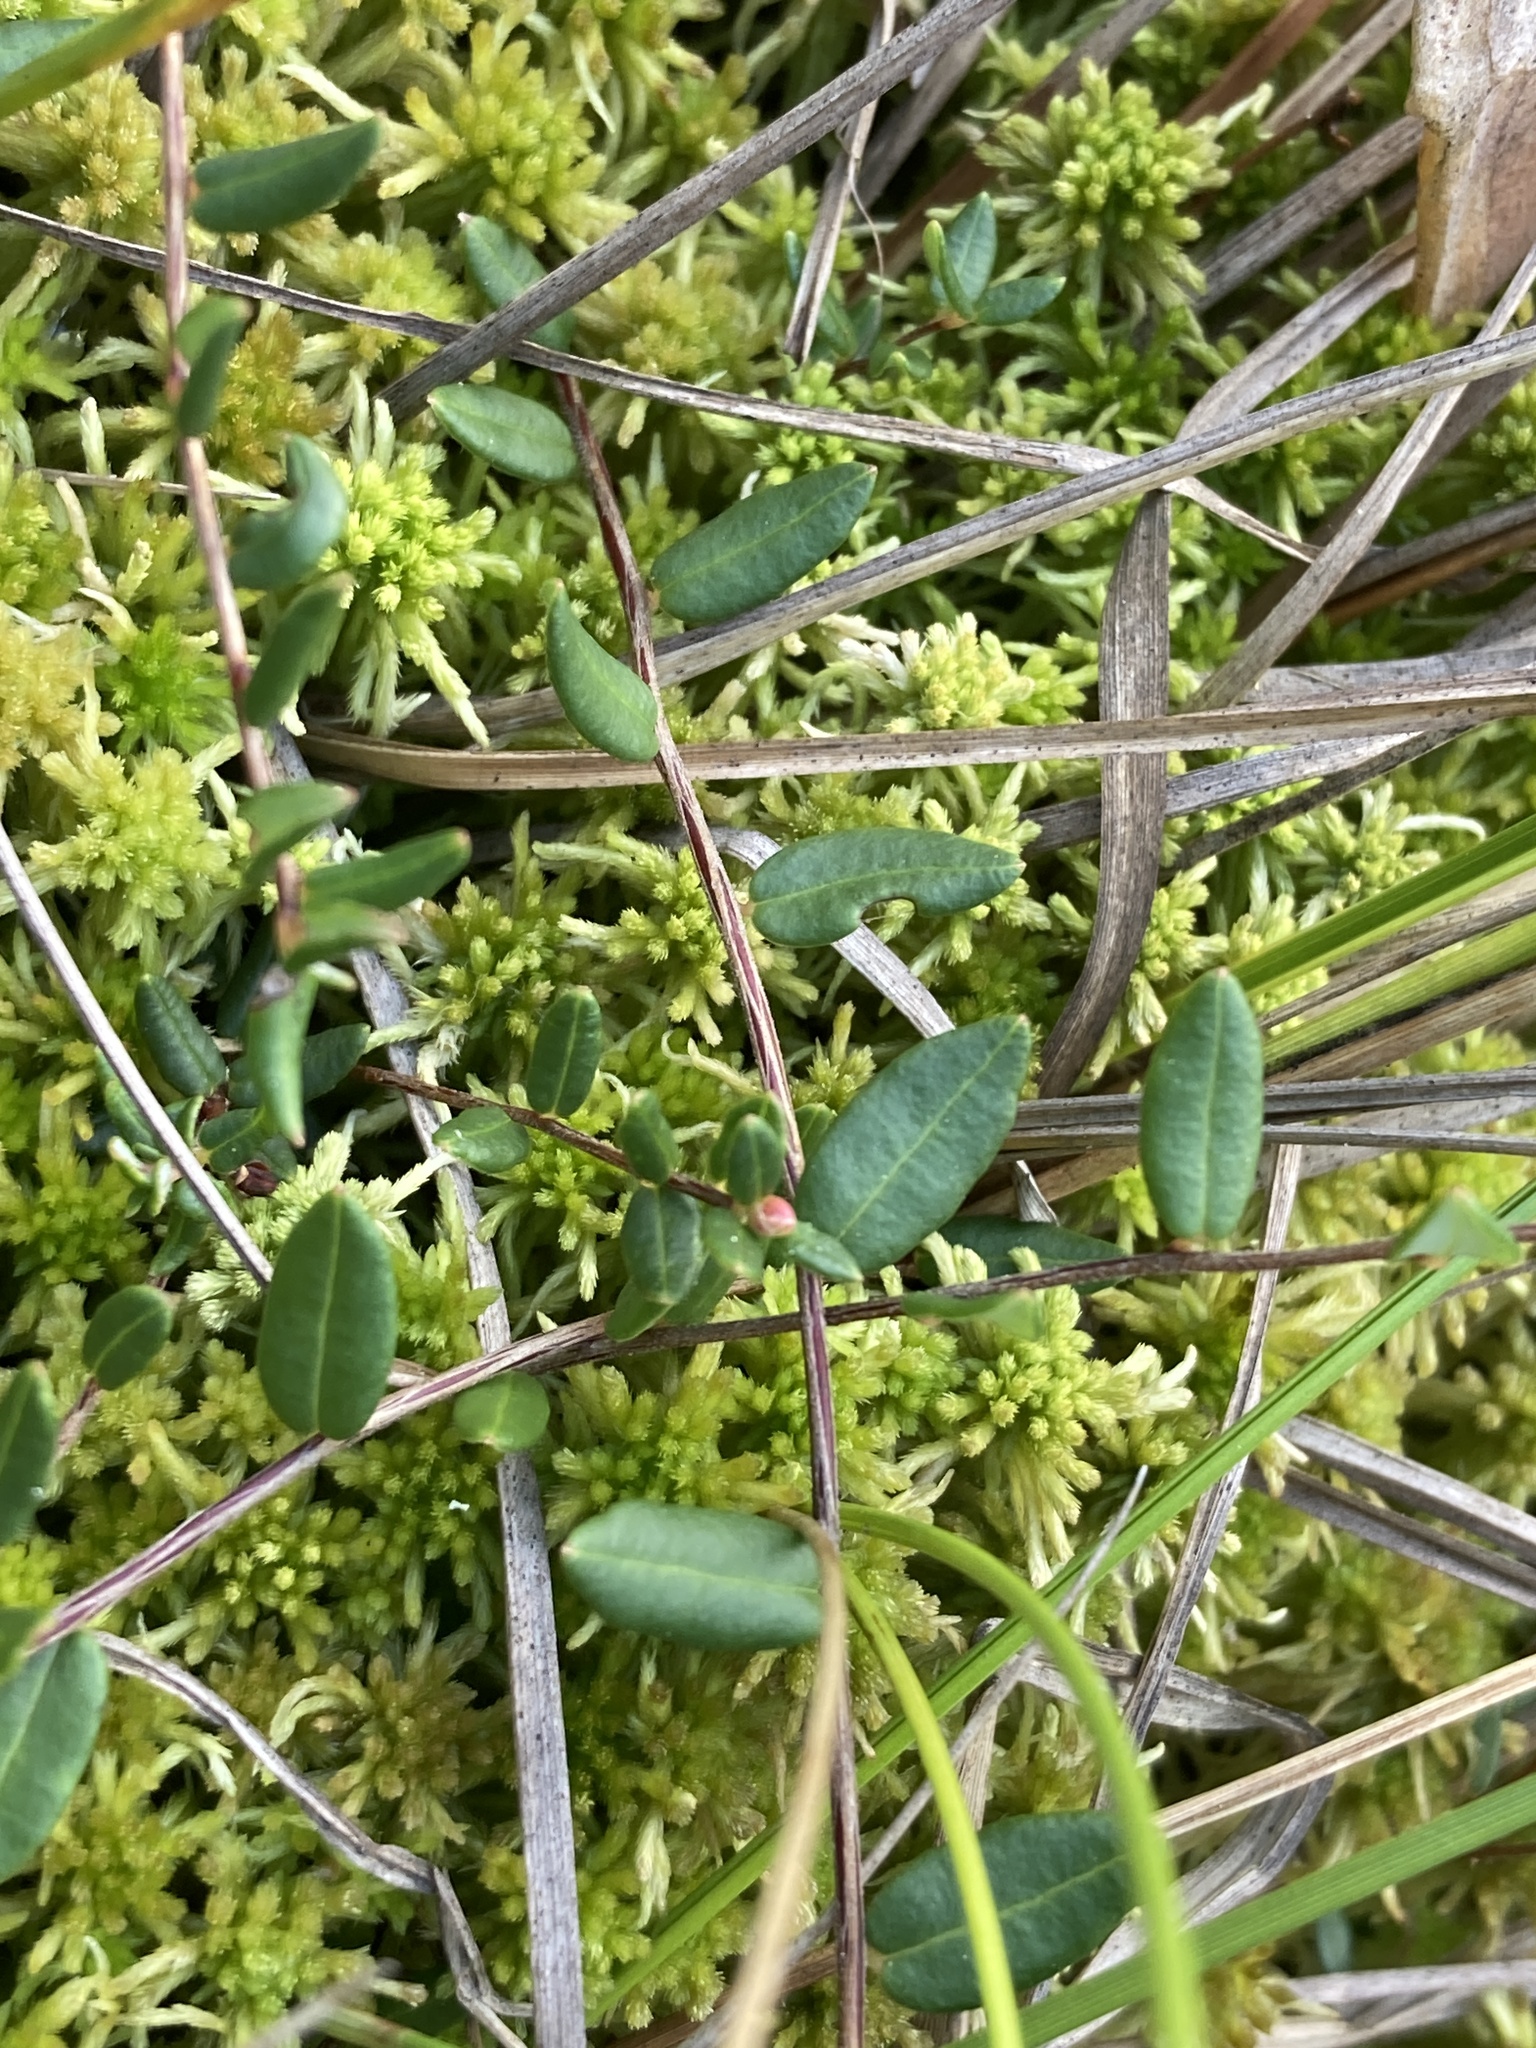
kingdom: Plantae
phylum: Tracheophyta
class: Magnoliopsida
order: Ericales
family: Ericaceae
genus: Vaccinium
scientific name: Vaccinium oxycoccos
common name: Cranberry
